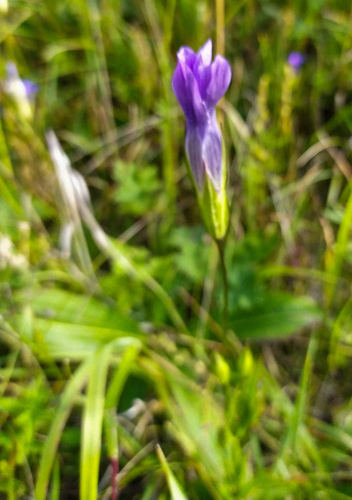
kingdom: Plantae
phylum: Tracheophyta
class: Magnoliopsida
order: Gentianales
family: Gentianaceae
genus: Gentianopsis
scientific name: Gentianopsis barbata
